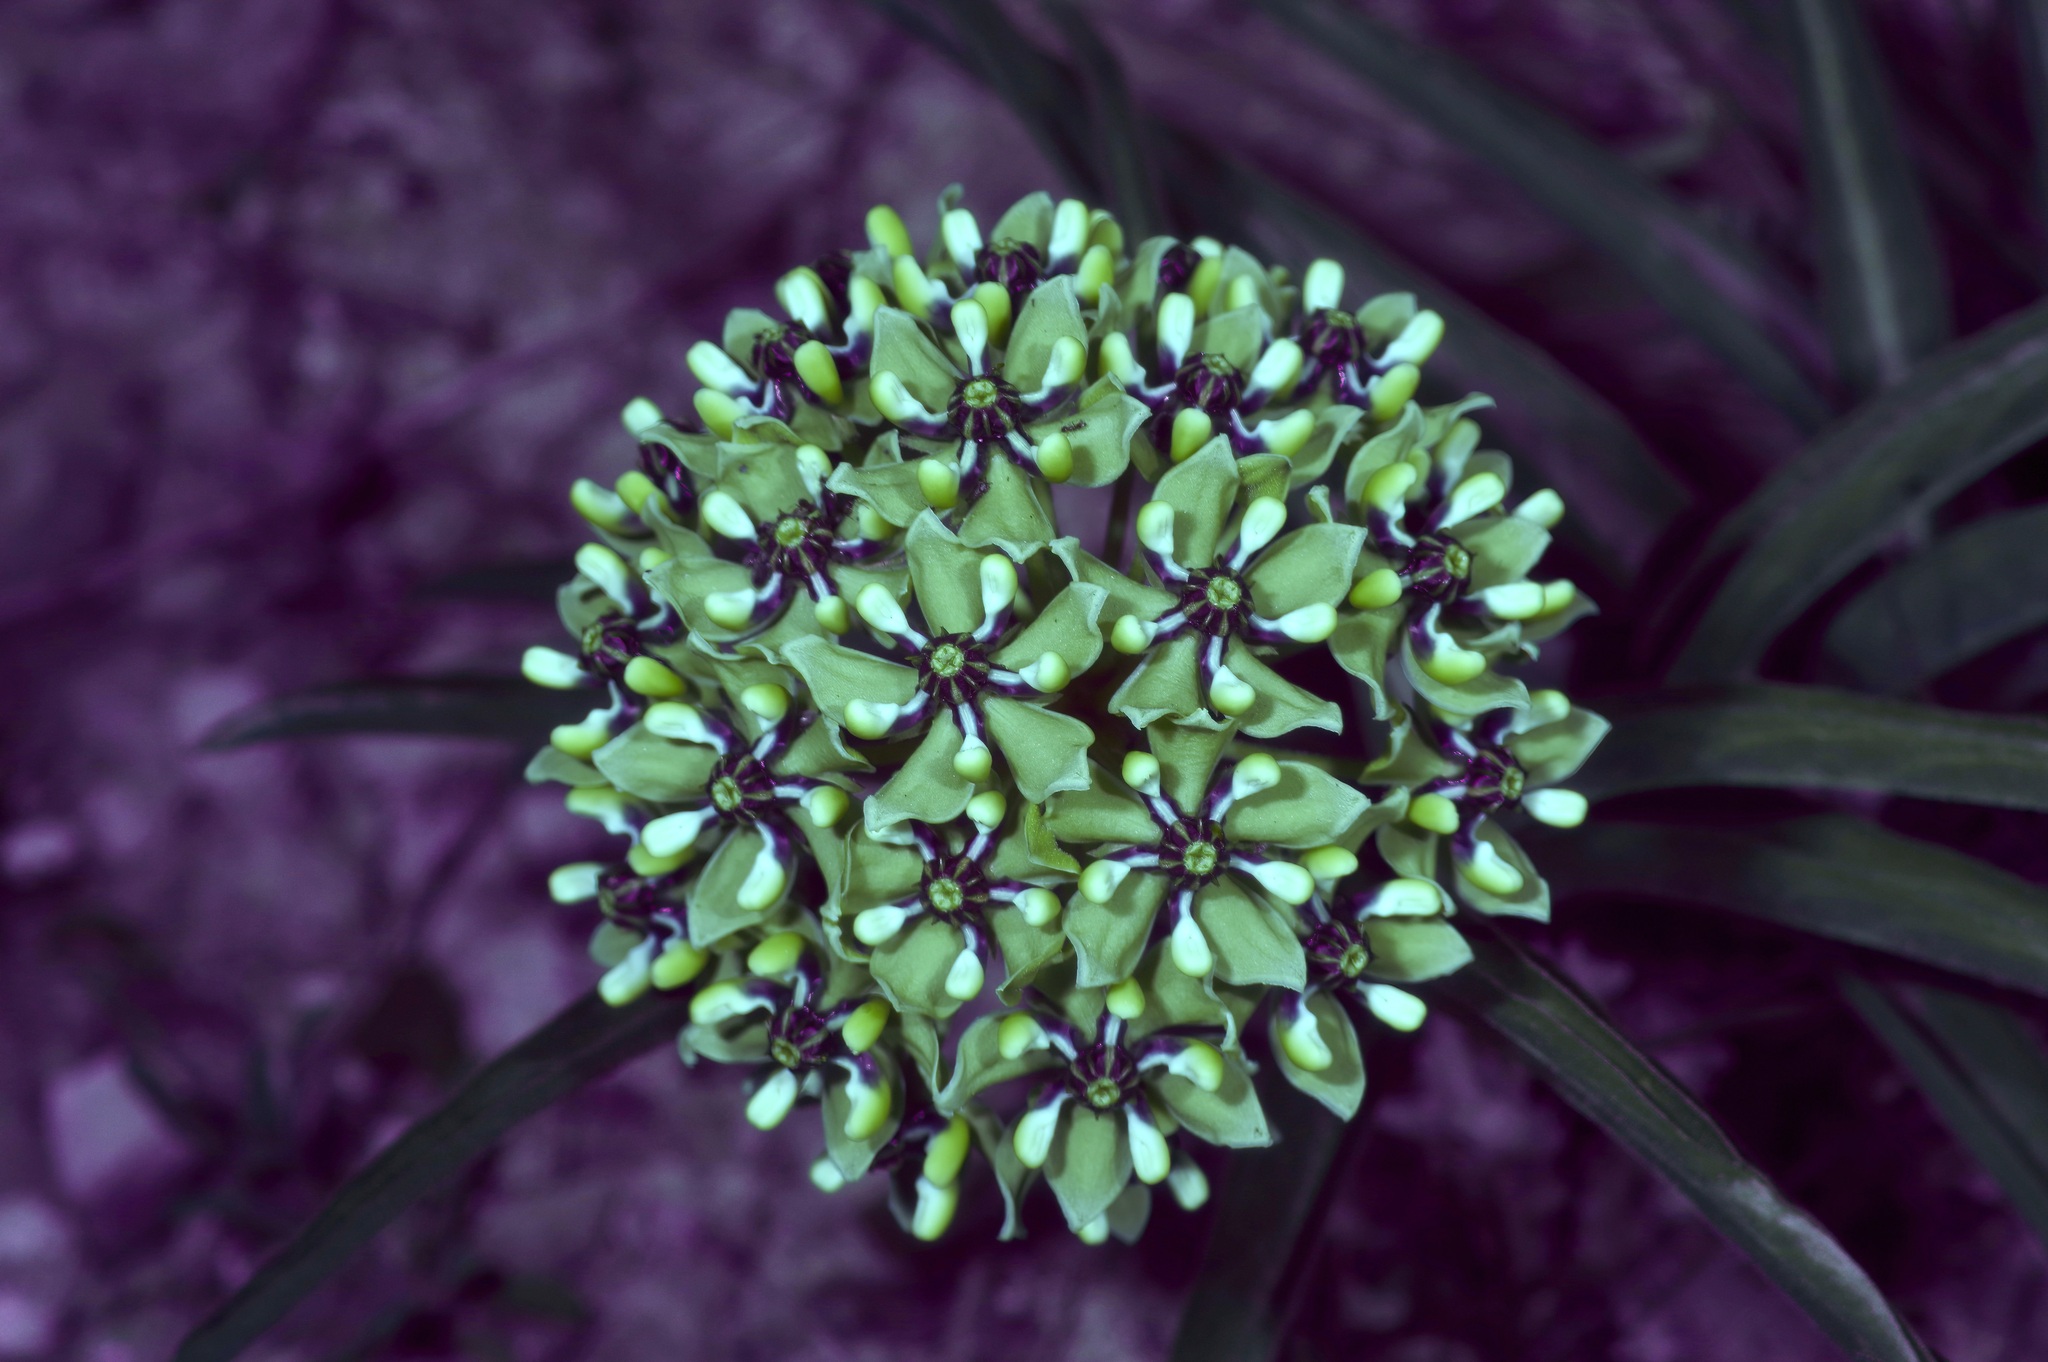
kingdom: Plantae
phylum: Tracheophyta
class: Magnoliopsida
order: Gentianales
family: Apocynaceae
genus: Asclepias
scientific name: Asclepias asperula
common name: Antelope horns
